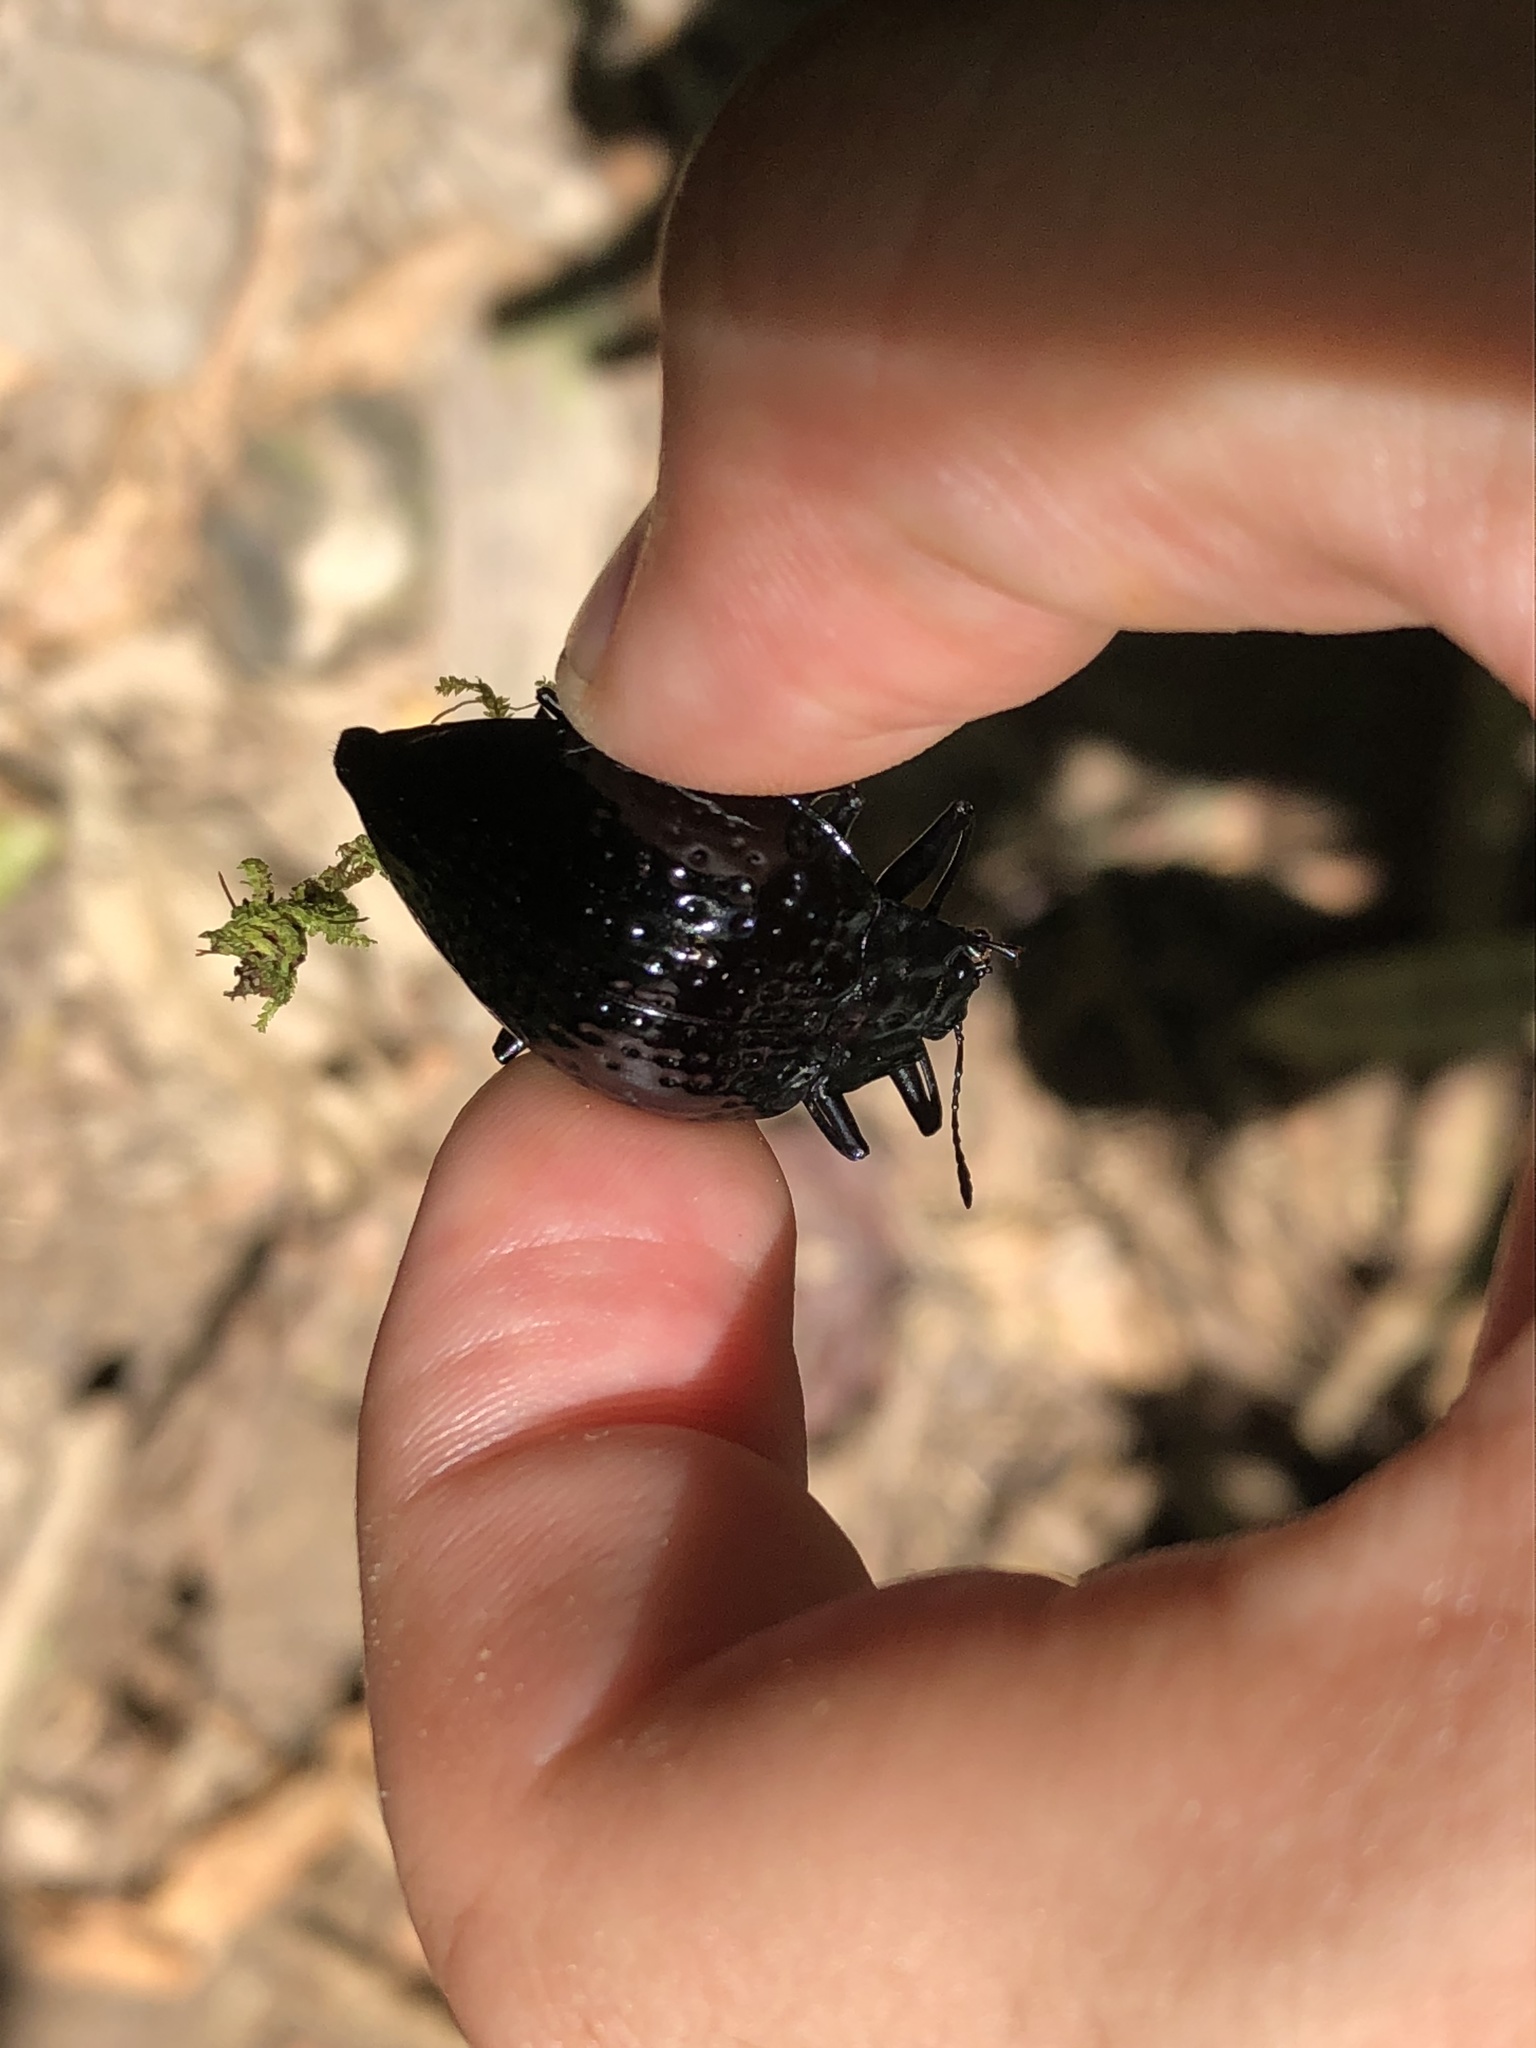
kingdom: Animalia
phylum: Arthropoda
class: Insecta
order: Coleoptera
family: Erotylidae
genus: Erotylus
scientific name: Erotylus
